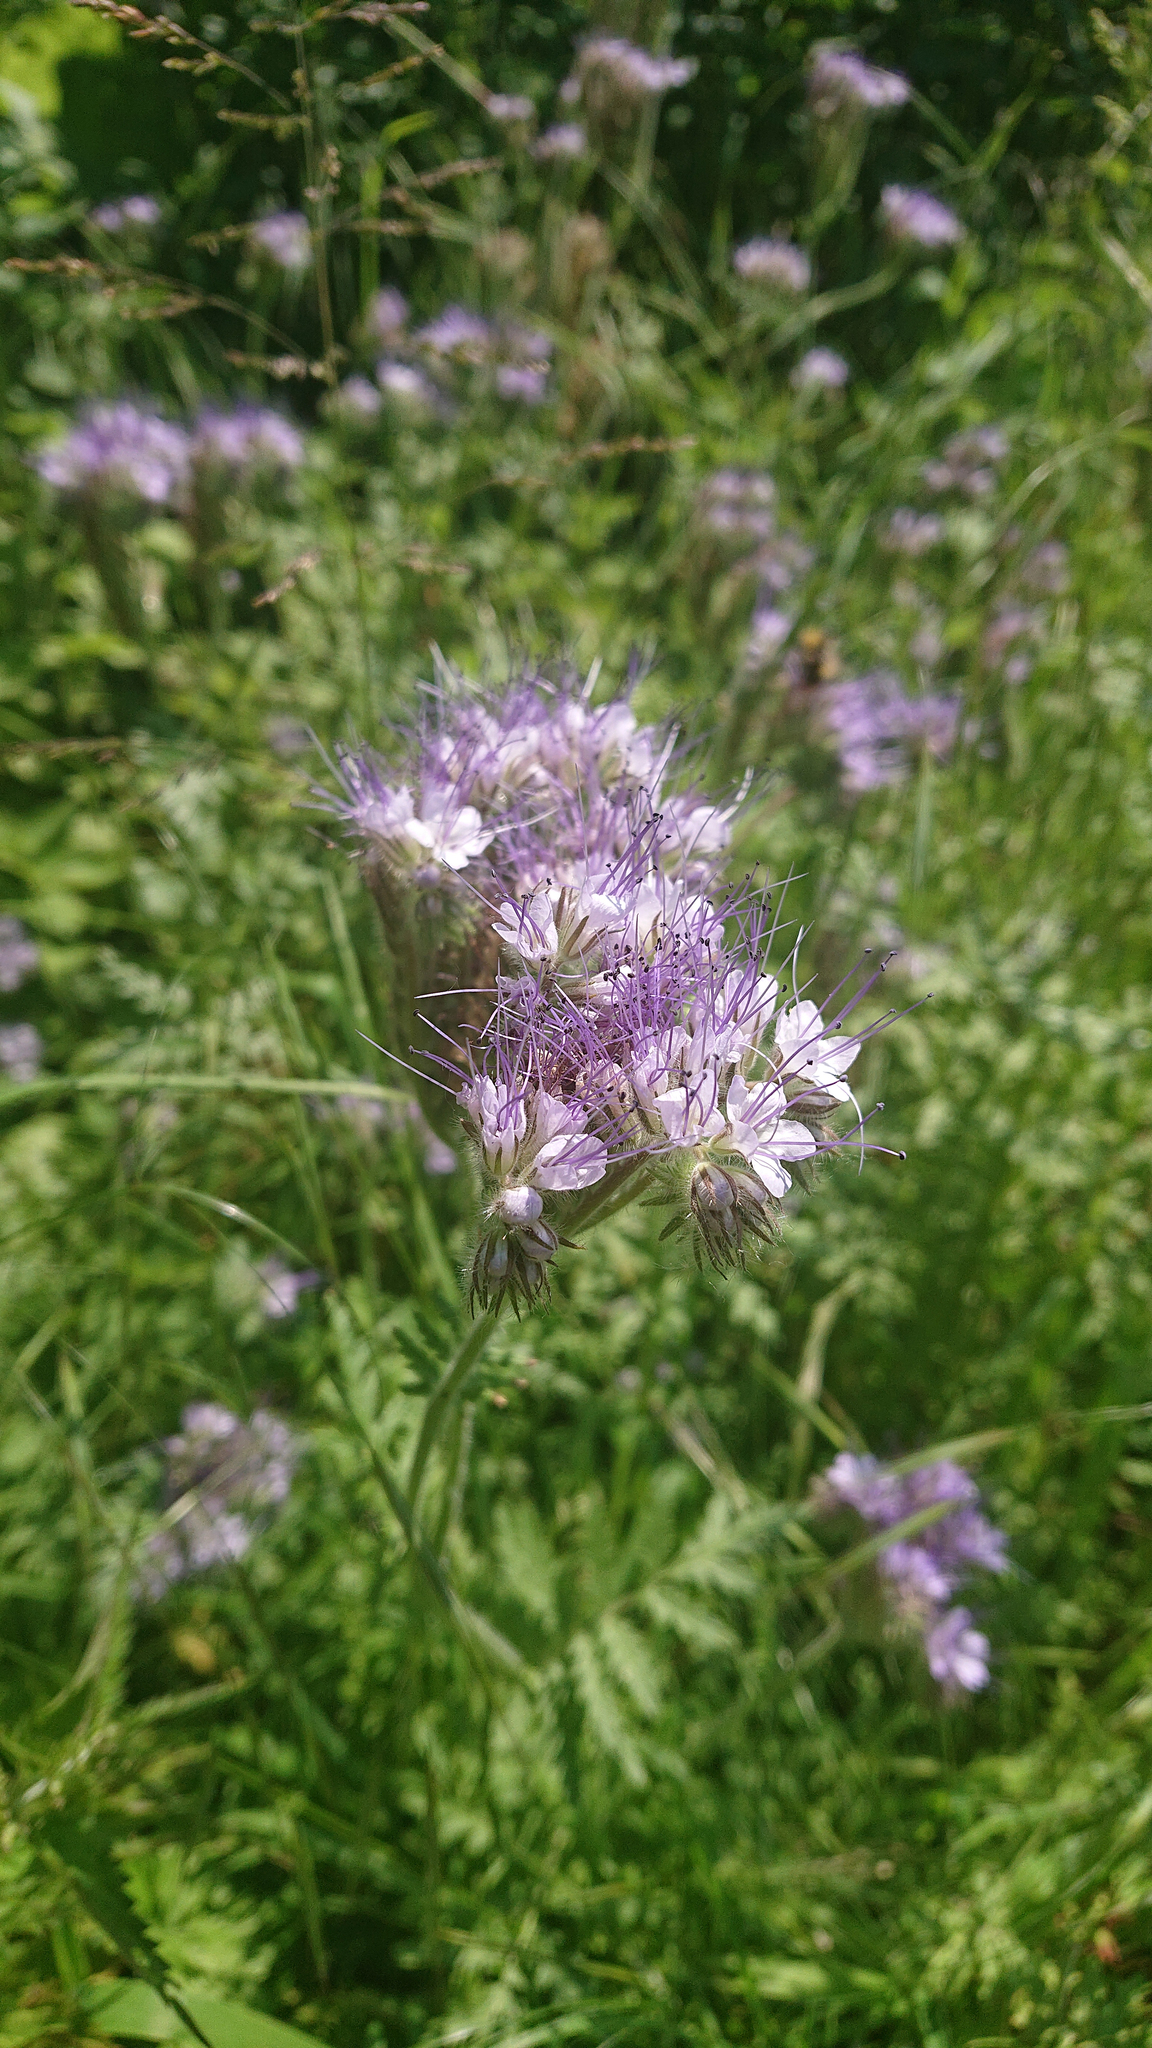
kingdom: Plantae
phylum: Tracheophyta
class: Magnoliopsida
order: Boraginales
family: Hydrophyllaceae
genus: Phacelia
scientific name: Phacelia tanacetifolia
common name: Phacelia
